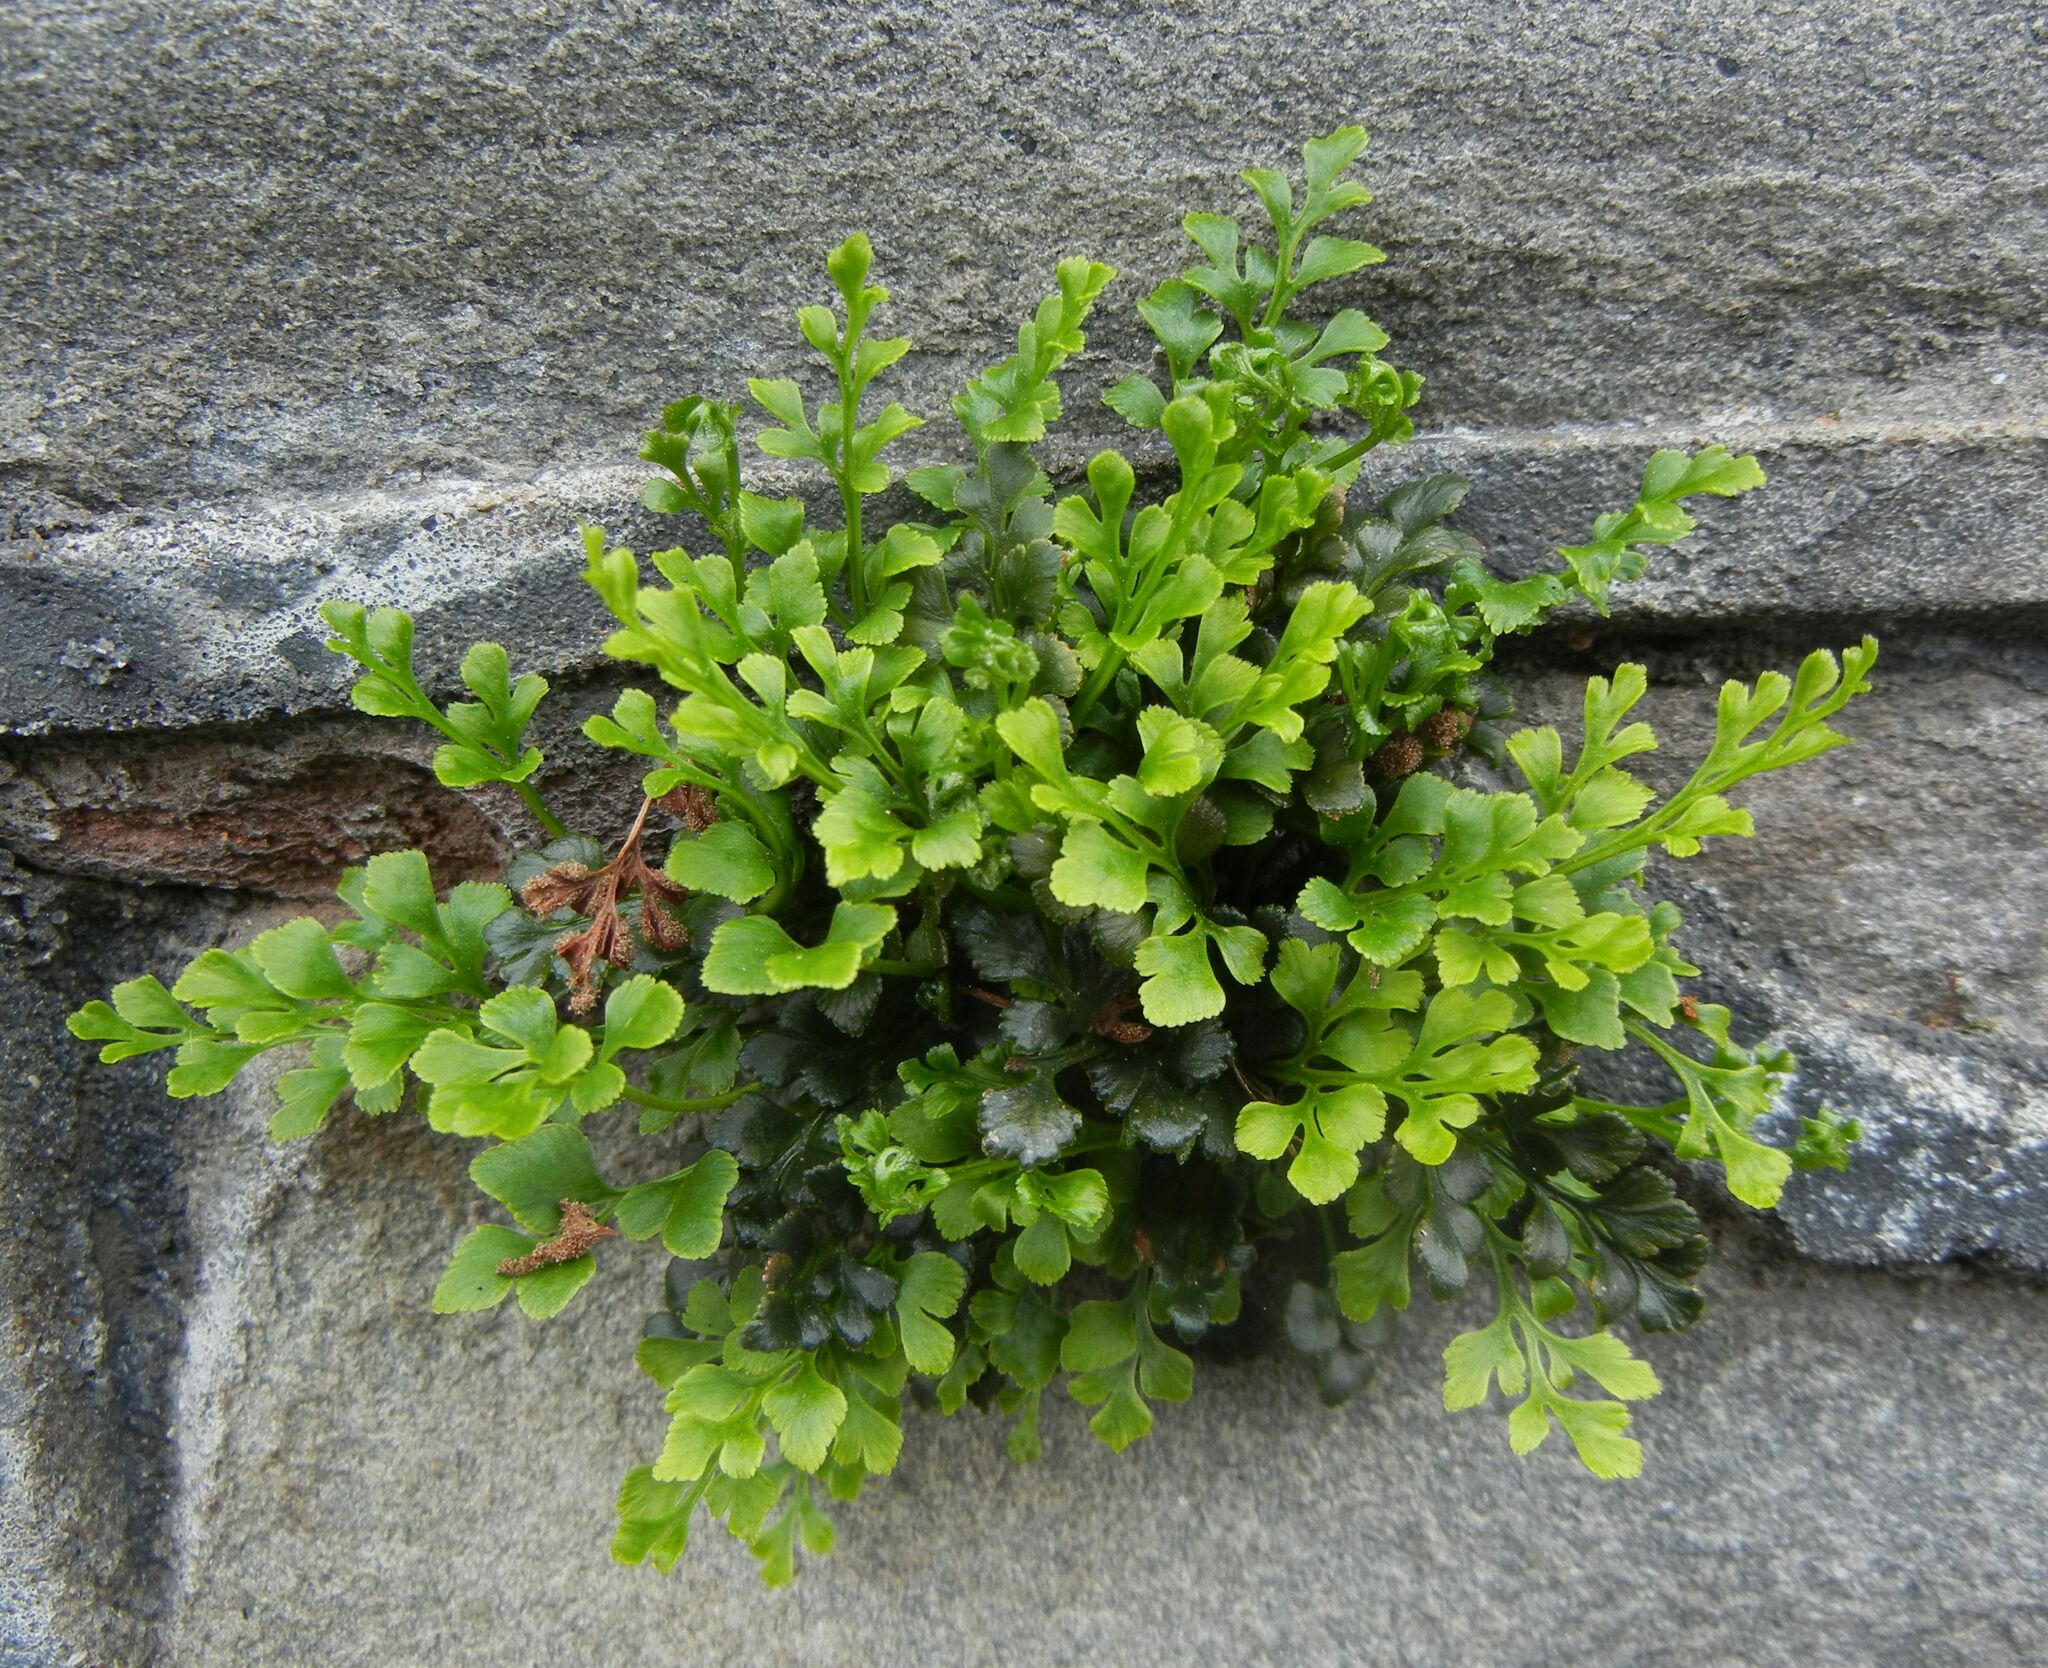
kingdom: Plantae
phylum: Tracheophyta
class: Polypodiopsida
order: Polypodiales
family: Aspleniaceae
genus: Asplenium
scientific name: Asplenium ruta-muraria
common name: Wall-rue
